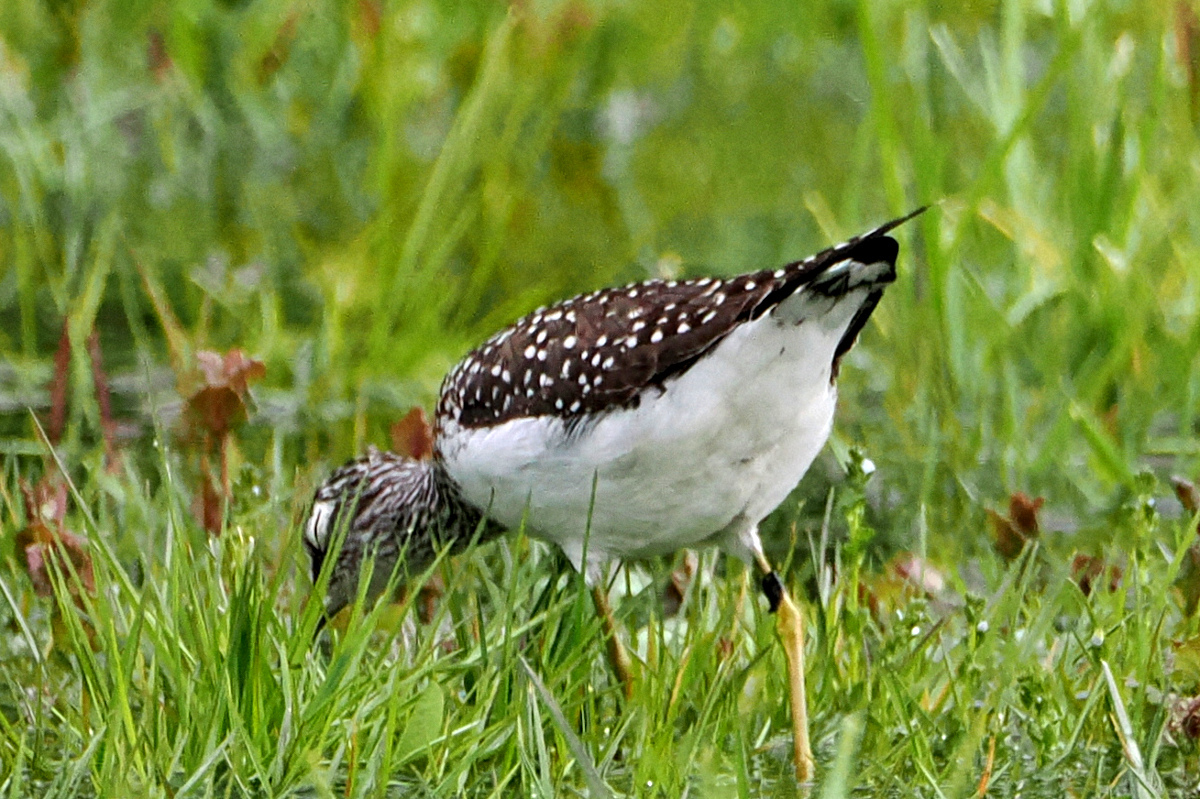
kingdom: Animalia
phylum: Chordata
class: Aves
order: Charadriiformes
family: Scolopacidae
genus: Tringa
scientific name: Tringa solitaria
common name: Solitary sandpiper
